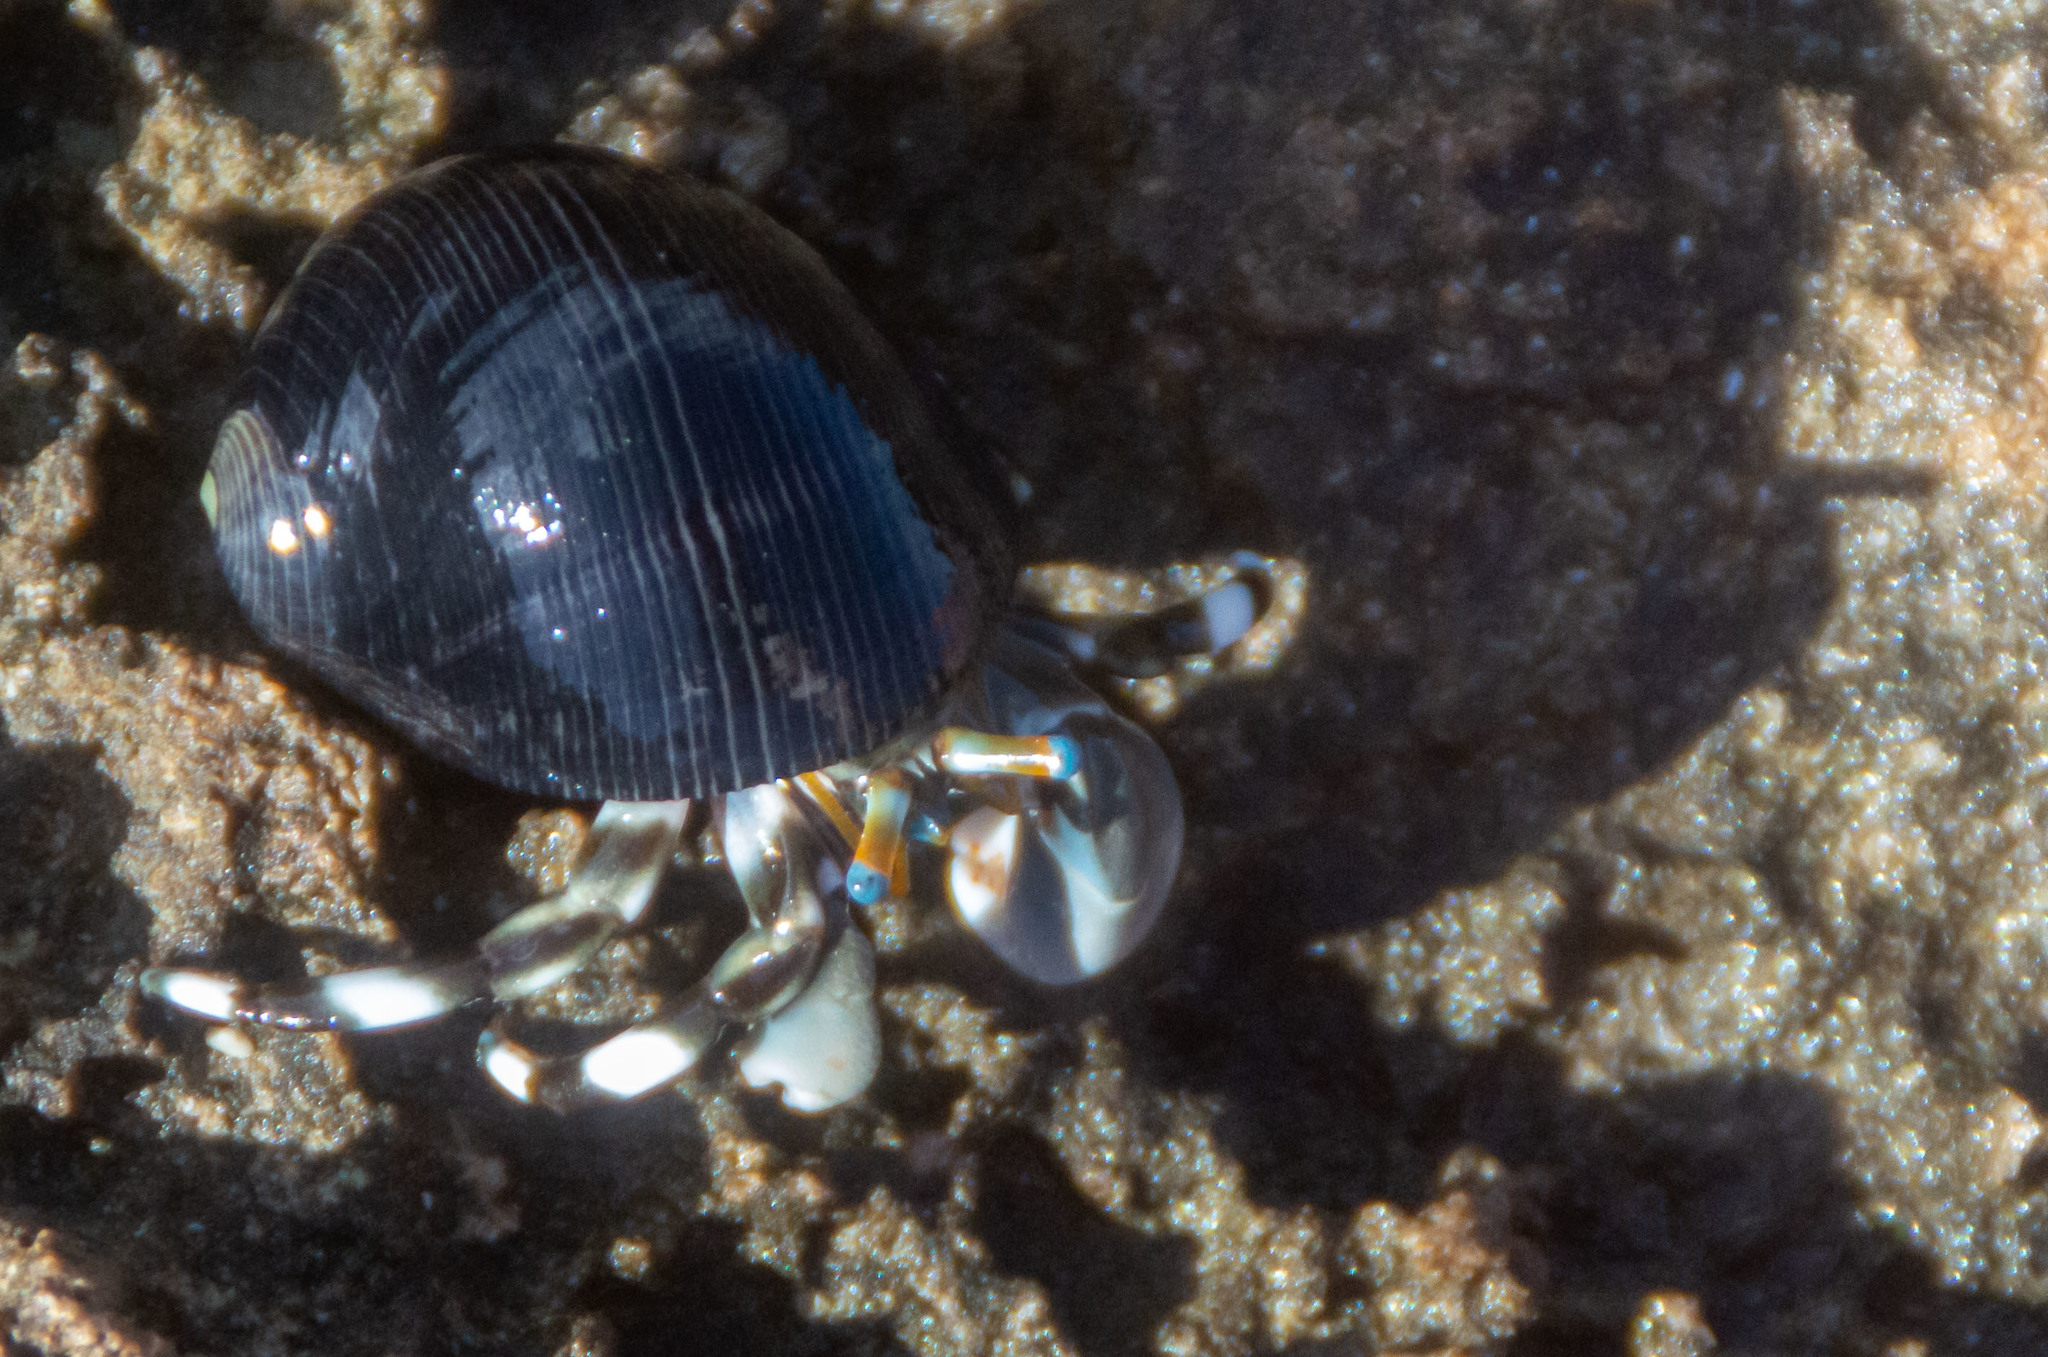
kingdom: Animalia
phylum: Arthropoda
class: Malacostraca
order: Decapoda
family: Diogenidae
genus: Calcinus
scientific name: Calcinus seurati
